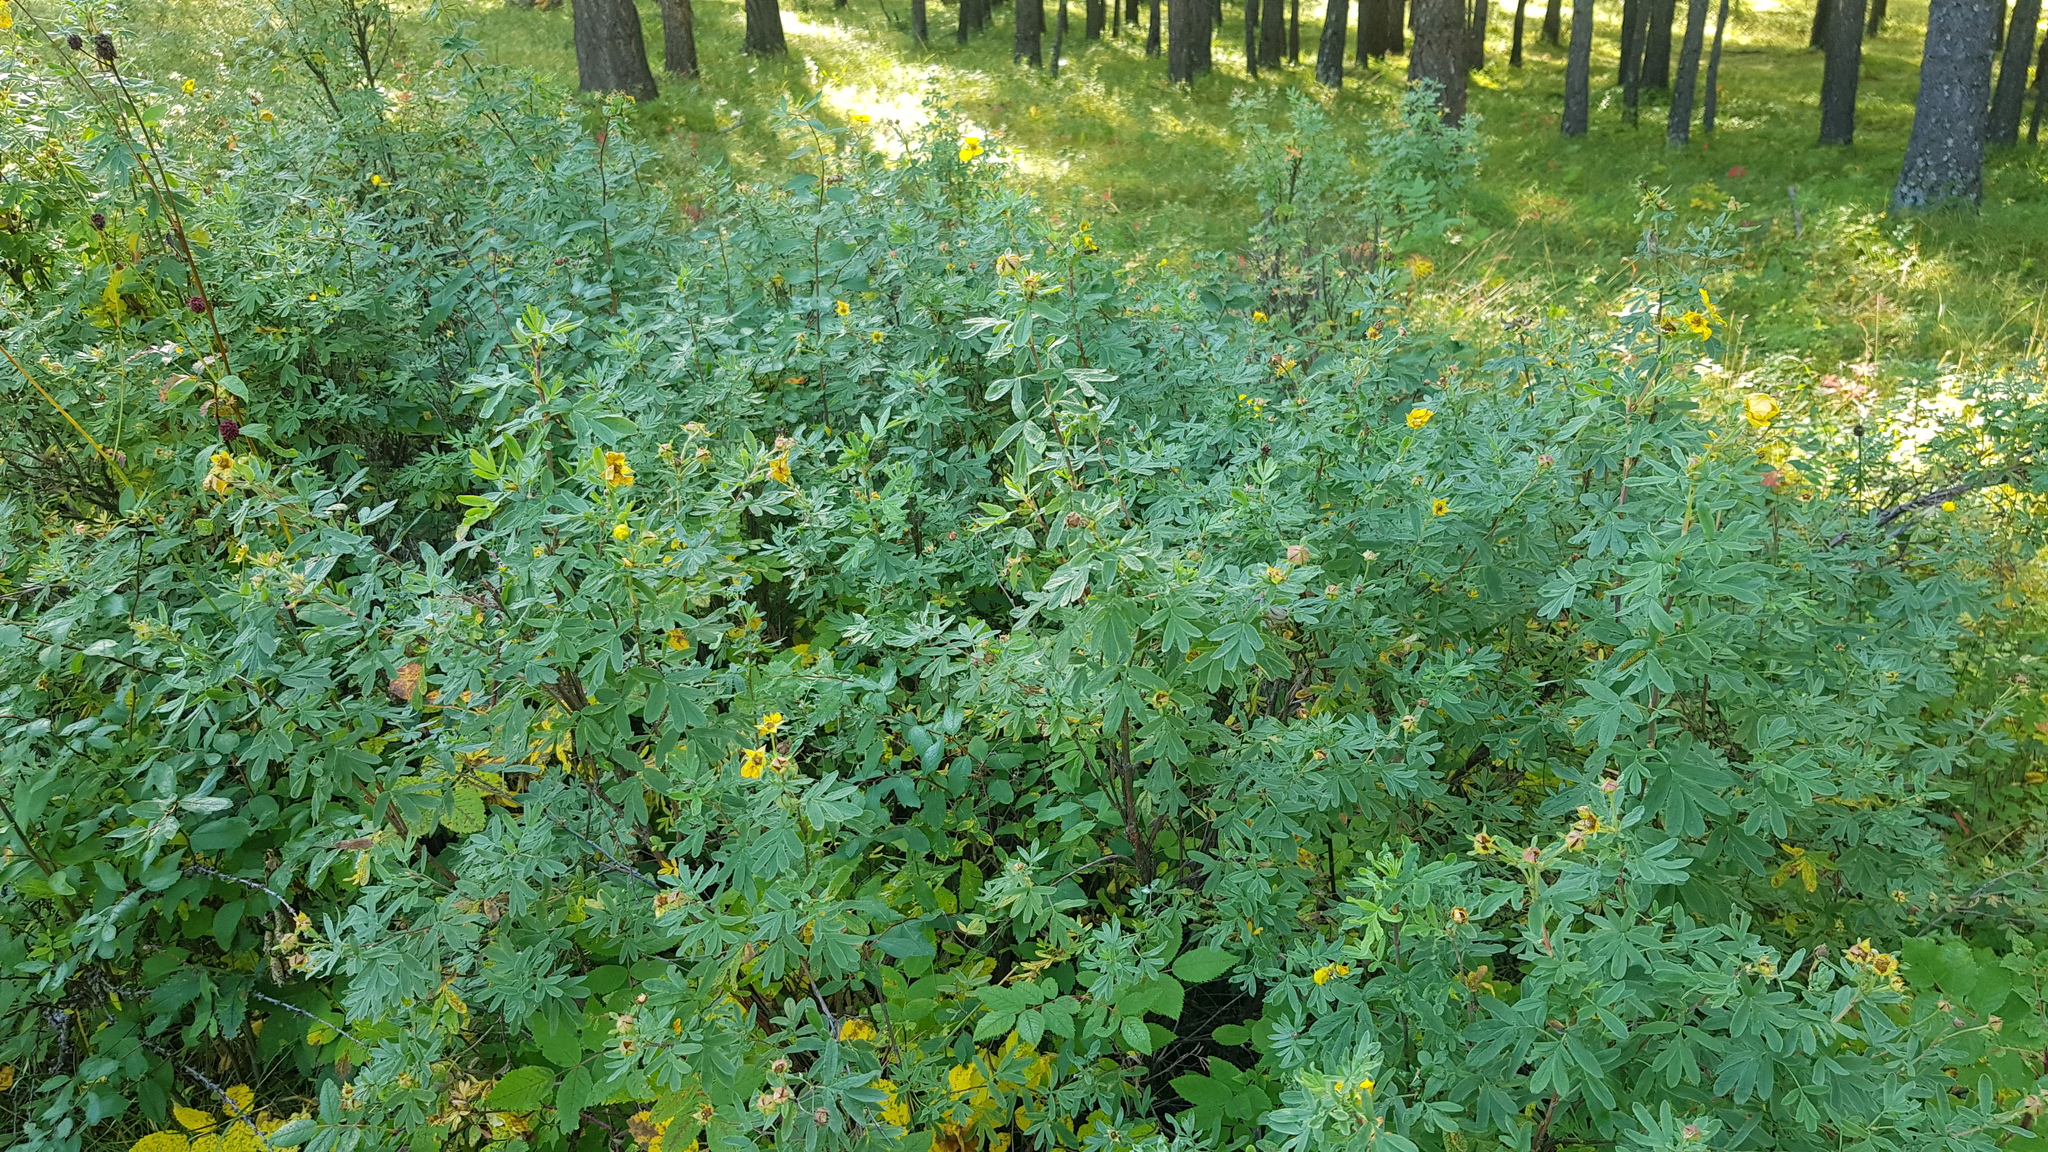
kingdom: Plantae
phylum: Tracheophyta
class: Magnoliopsida
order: Rosales
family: Rosaceae
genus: Dasiphora
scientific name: Dasiphora fruticosa
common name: Shrubby cinquefoil
